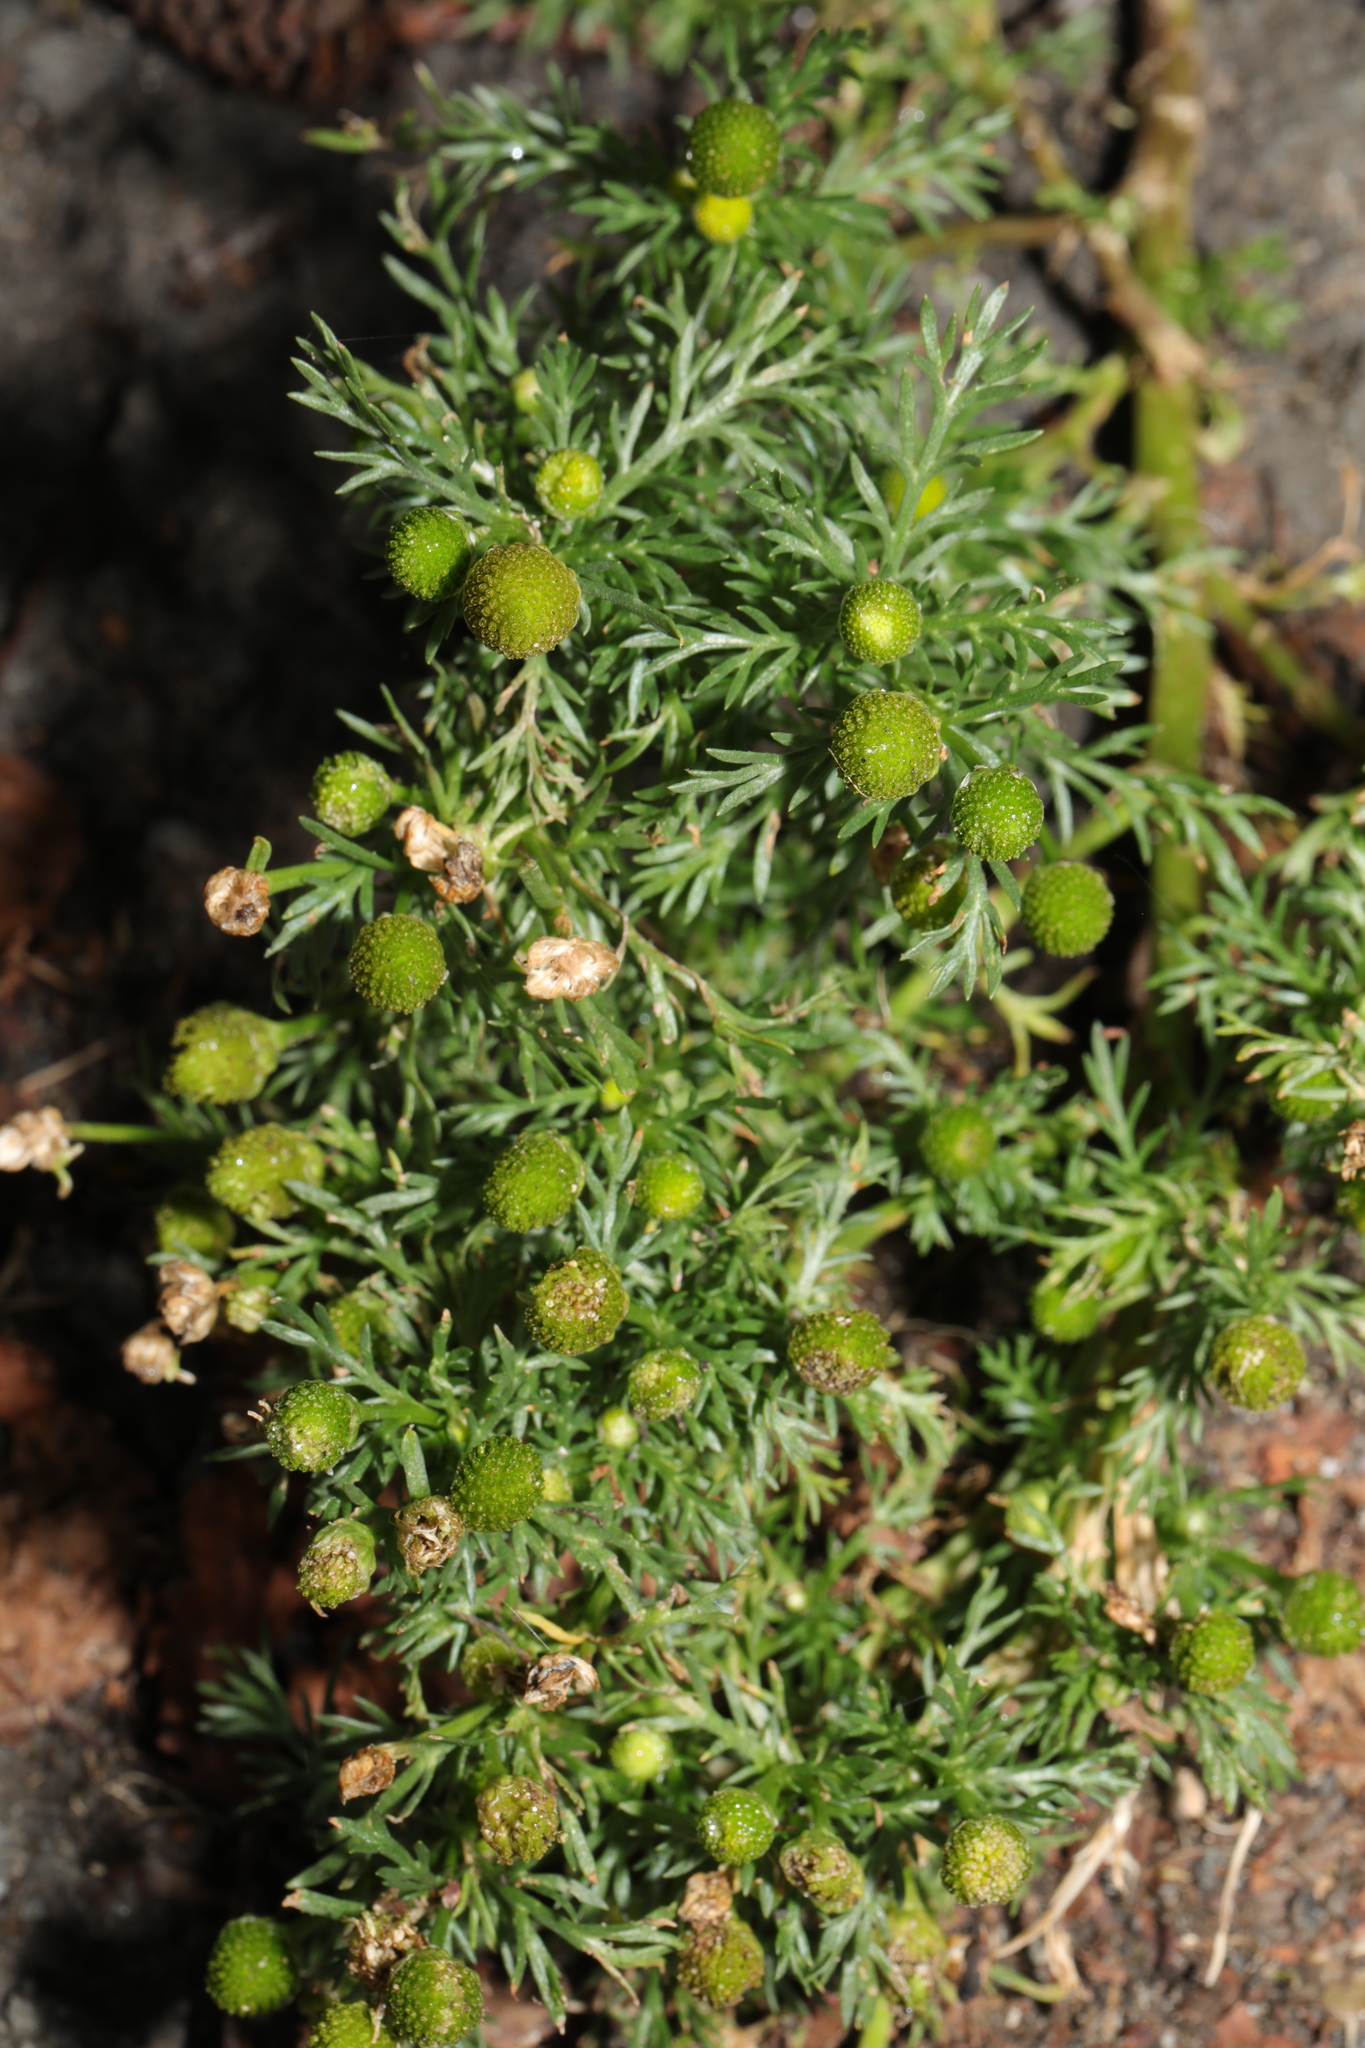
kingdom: Plantae
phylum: Tracheophyta
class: Magnoliopsida
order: Asterales
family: Asteraceae
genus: Matricaria
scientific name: Matricaria discoidea
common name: Disc mayweed
